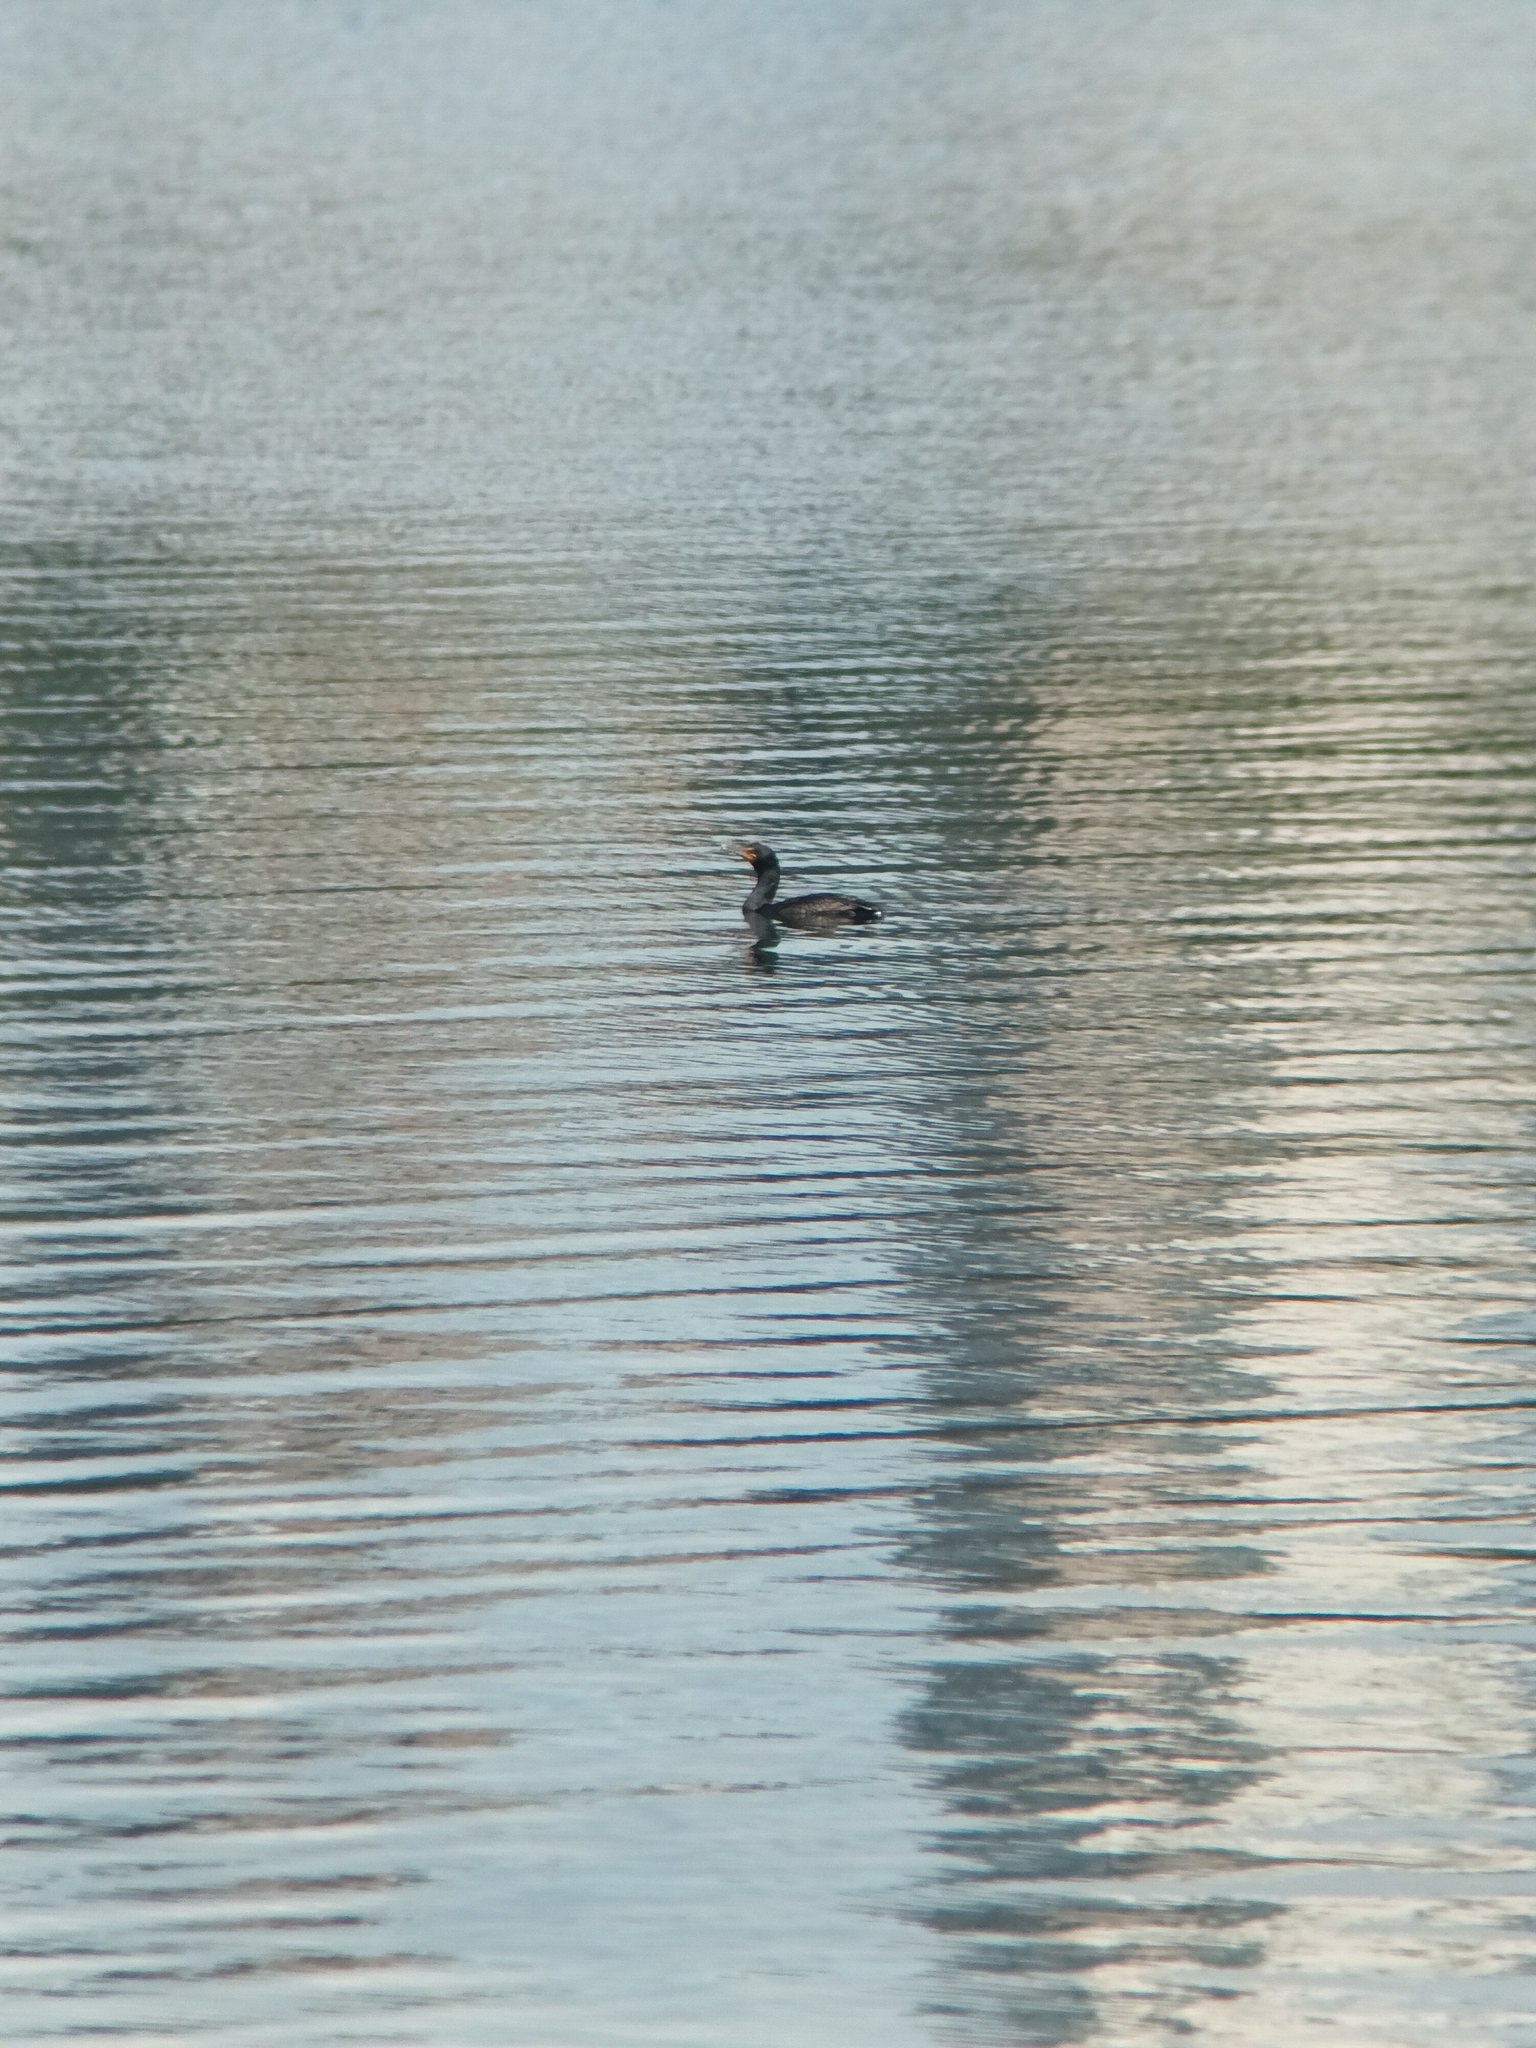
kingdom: Animalia
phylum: Chordata
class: Aves
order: Suliformes
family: Phalacrocoracidae
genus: Phalacrocorax
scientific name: Phalacrocorax auritus
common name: Double-crested cormorant
